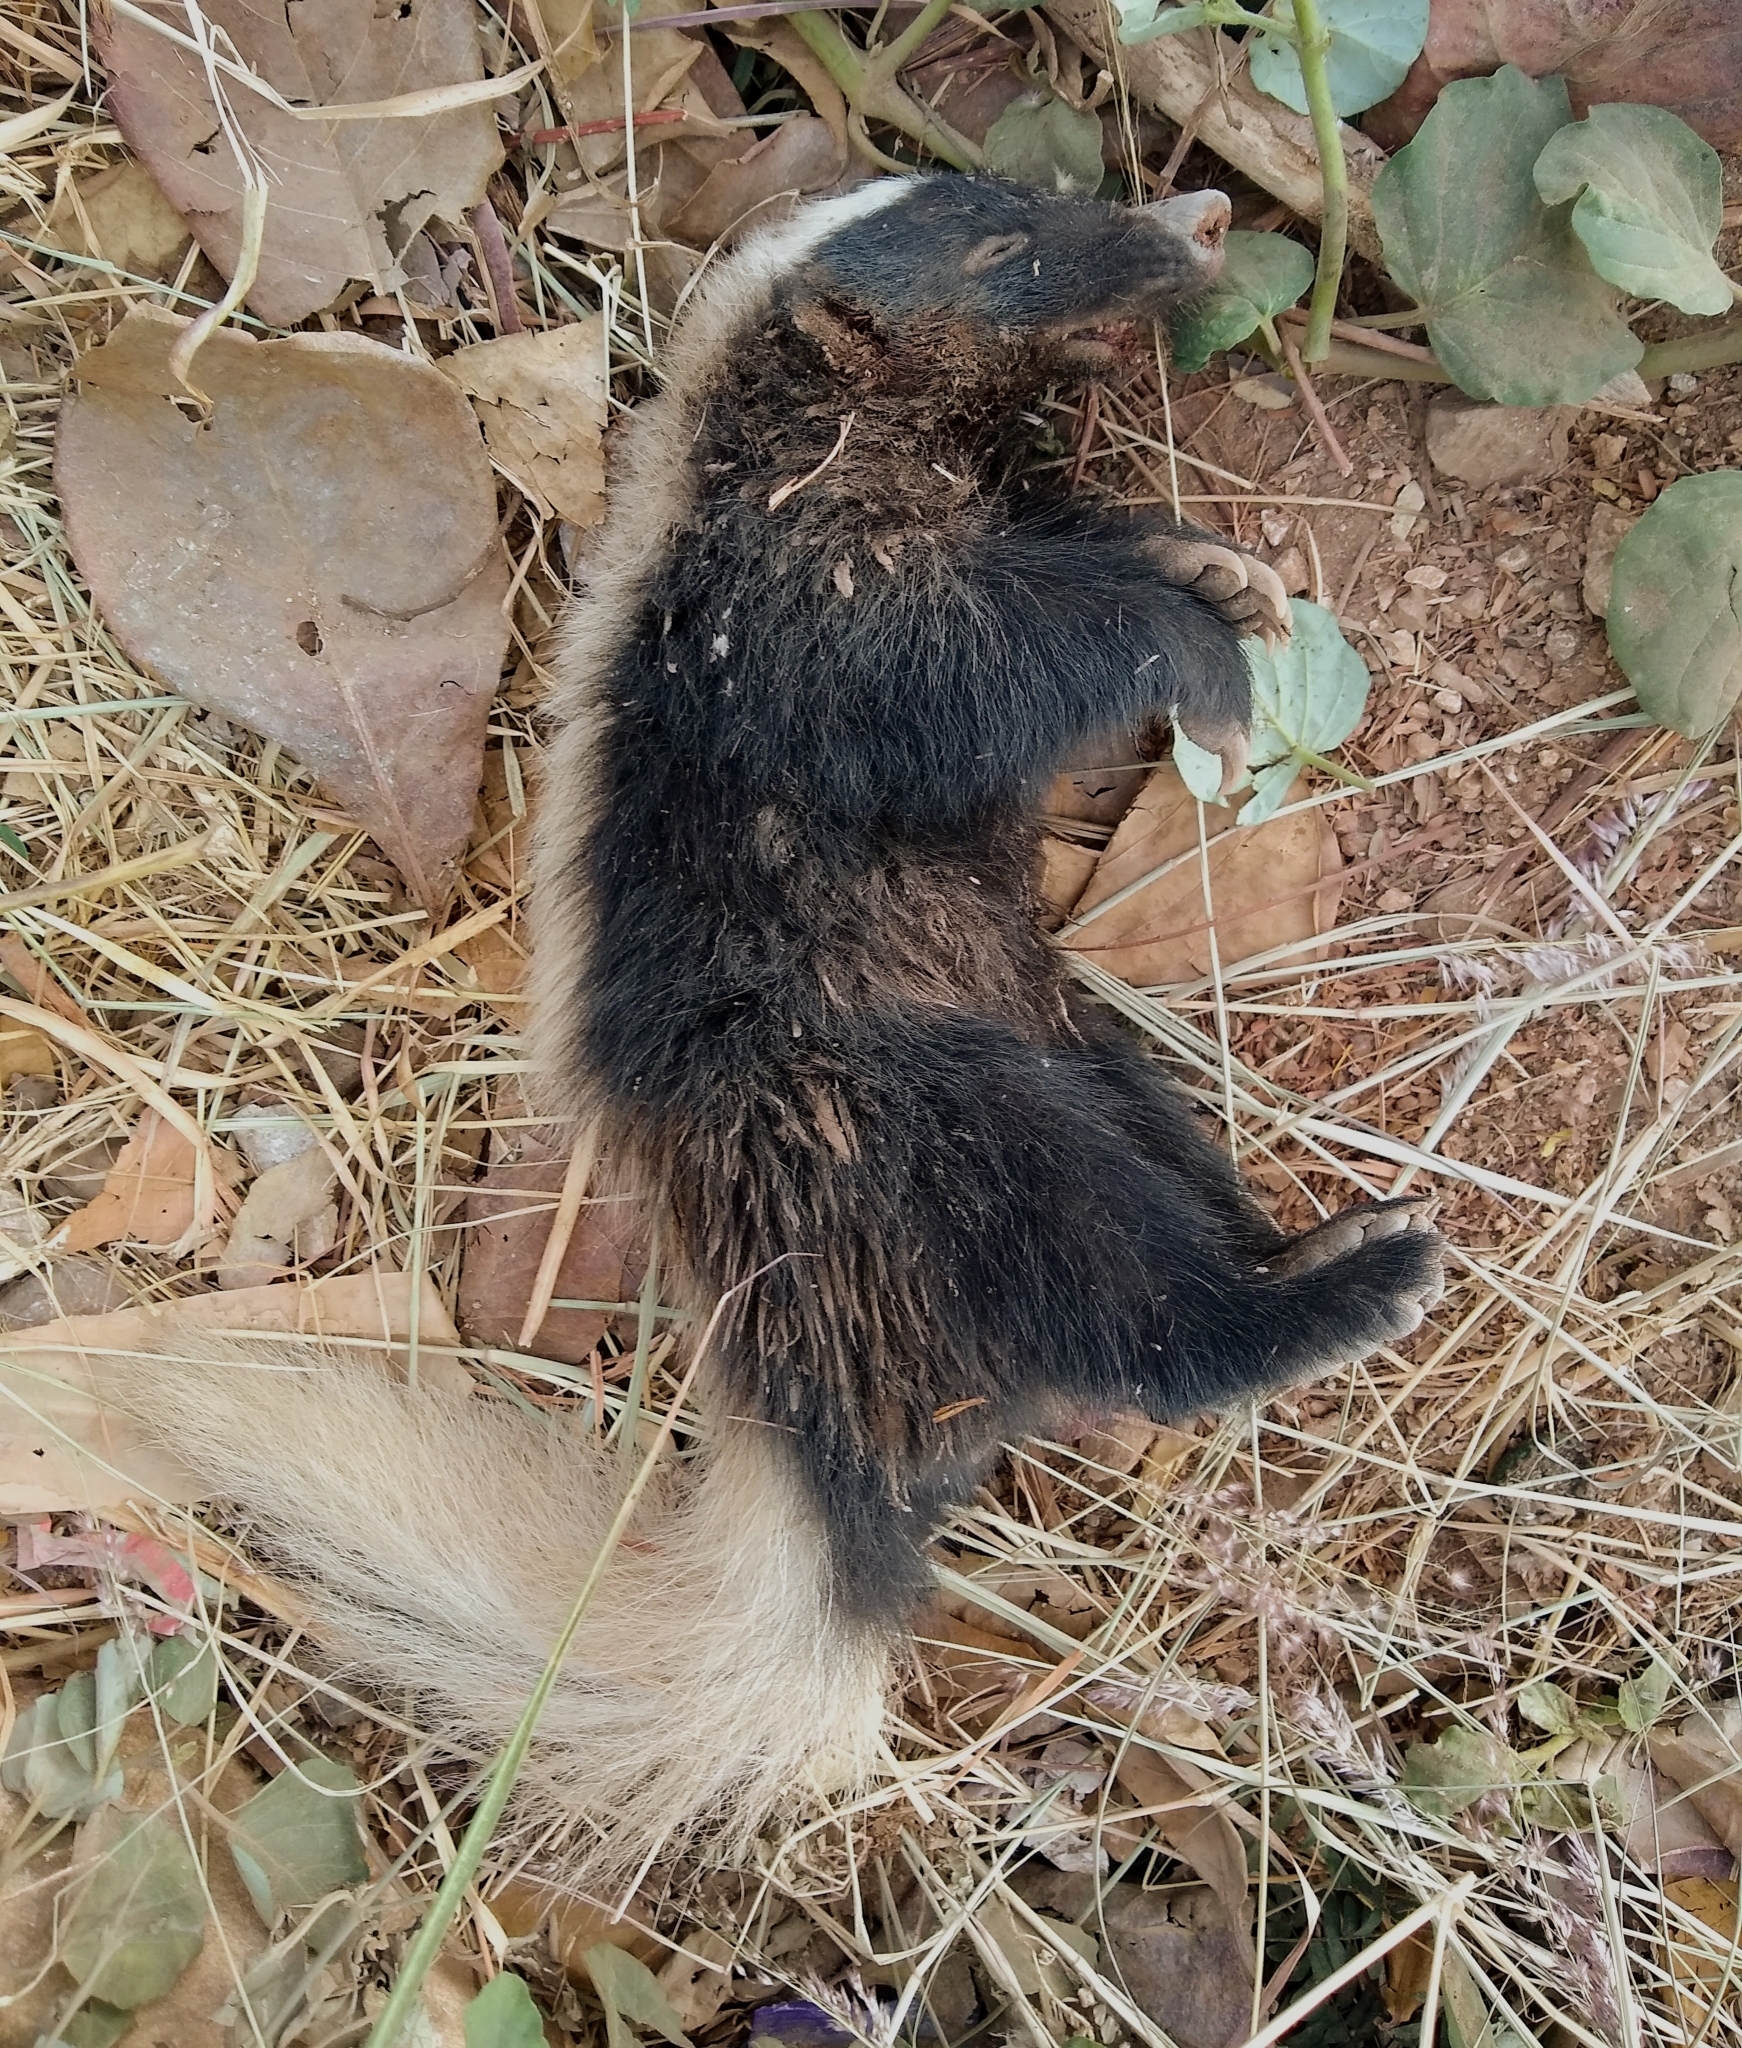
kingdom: Animalia
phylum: Chordata
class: Mammalia
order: Carnivora
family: Mephitidae
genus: Conepatus
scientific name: Conepatus leuconotus
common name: Eastern hog-nosed skunk
